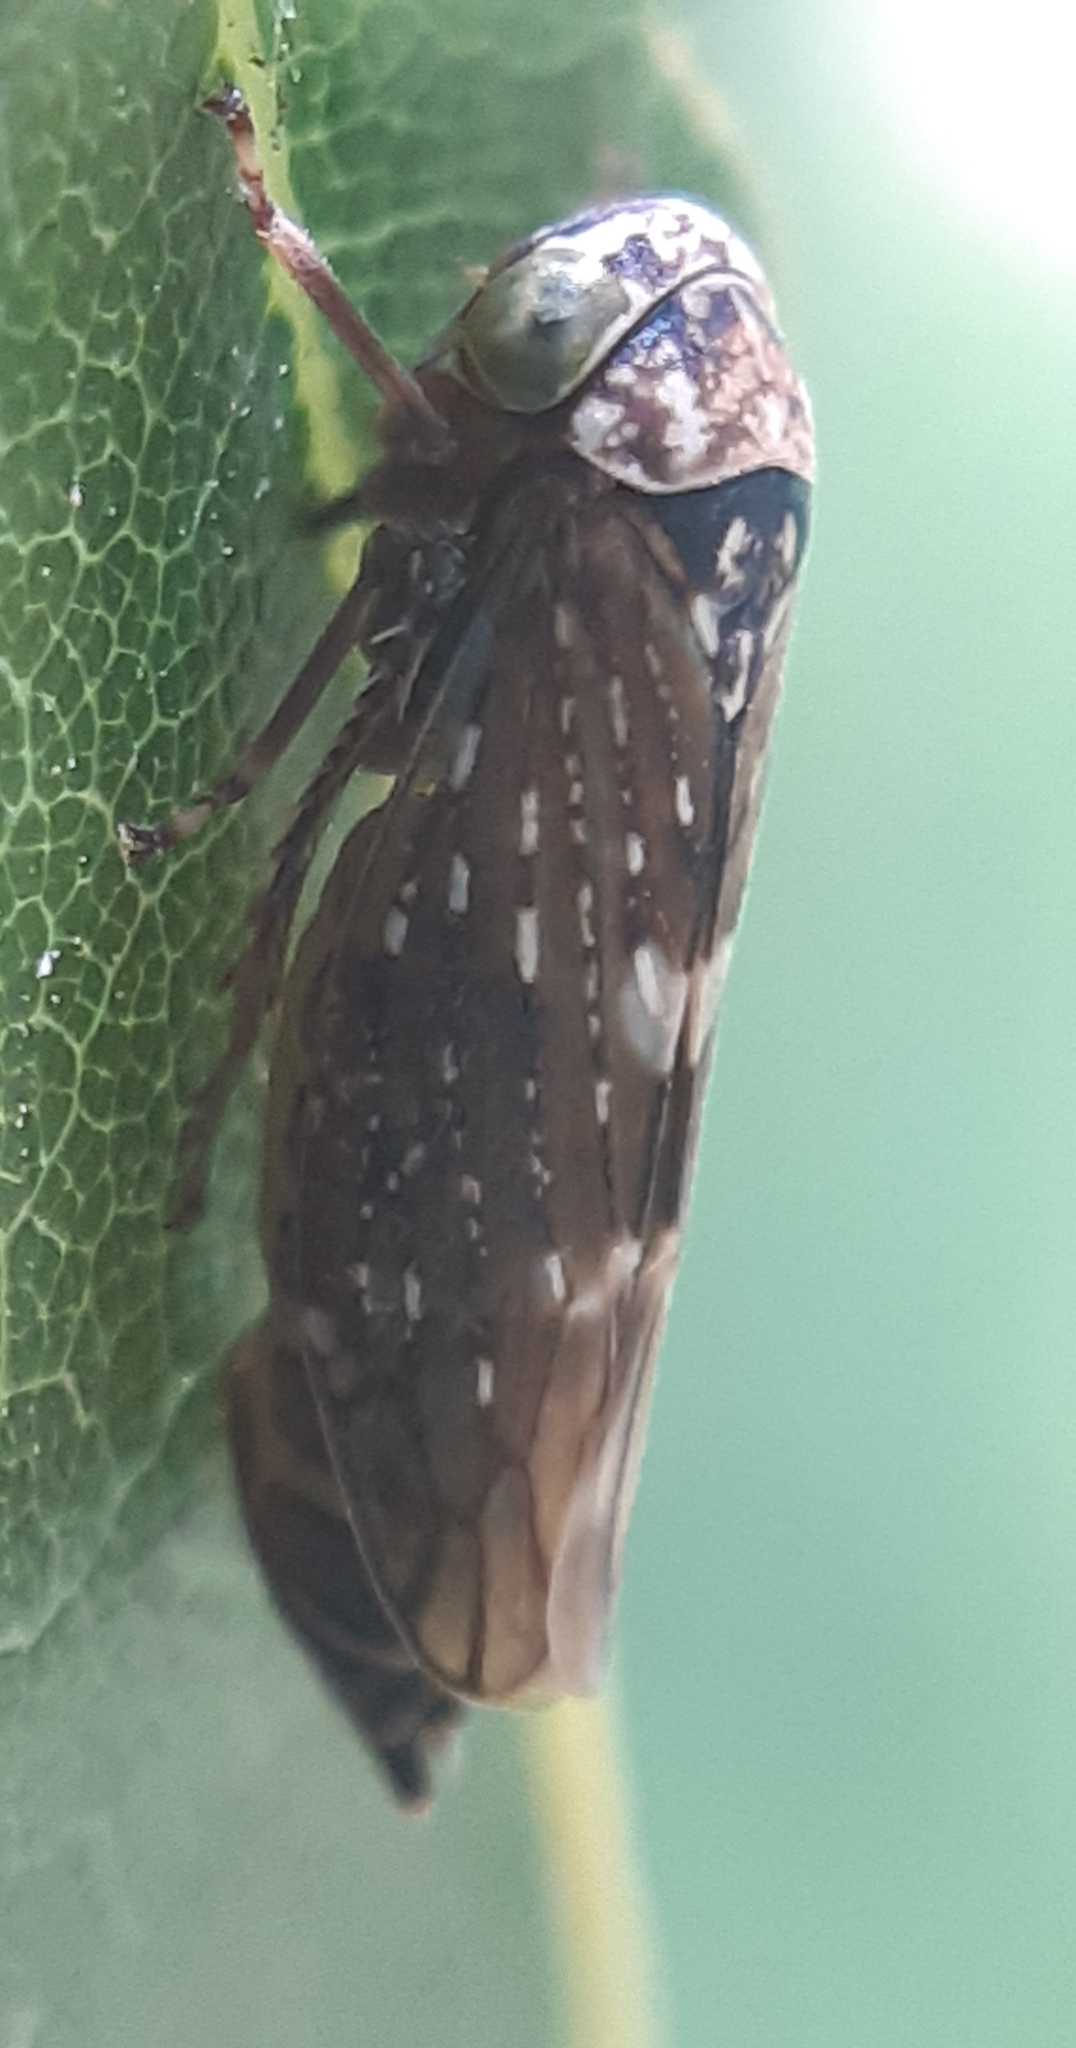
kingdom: Animalia
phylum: Arthropoda
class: Insecta
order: Hemiptera
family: Cicadellidae
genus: Acericerus
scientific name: Acericerus heydenii
